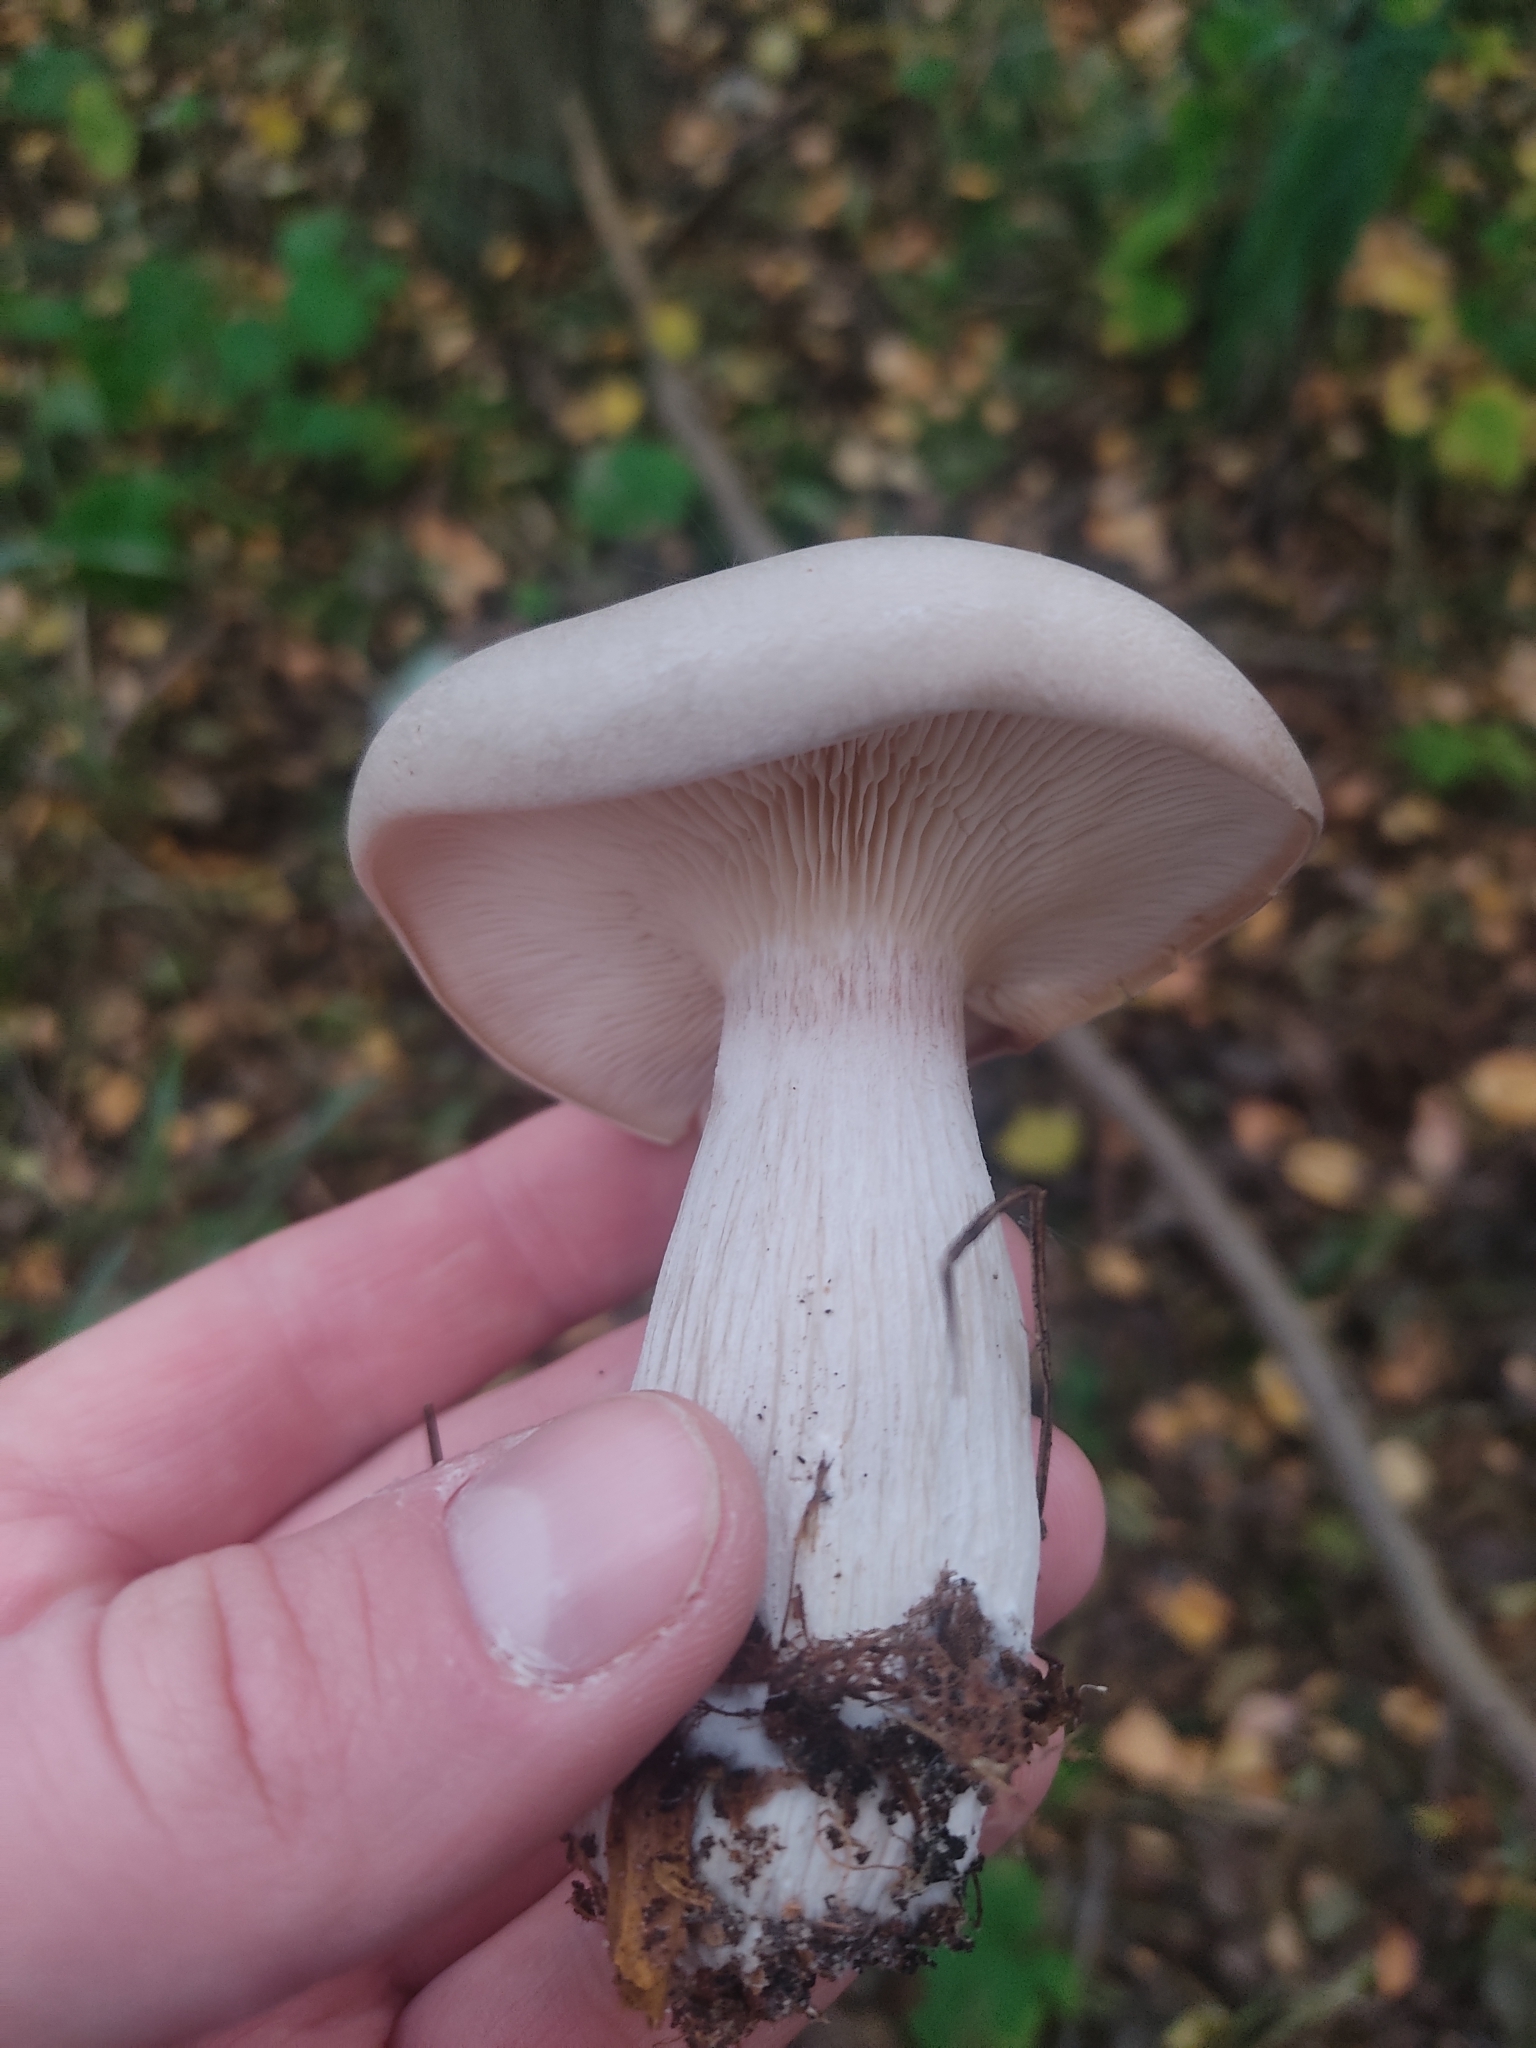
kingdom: Fungi
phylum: Basidiomycota
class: Agaricomycetes
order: Agaricales
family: Tricholomataceae
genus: Clitocybe
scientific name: Clitocybe nebularis
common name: Clouded agaric
